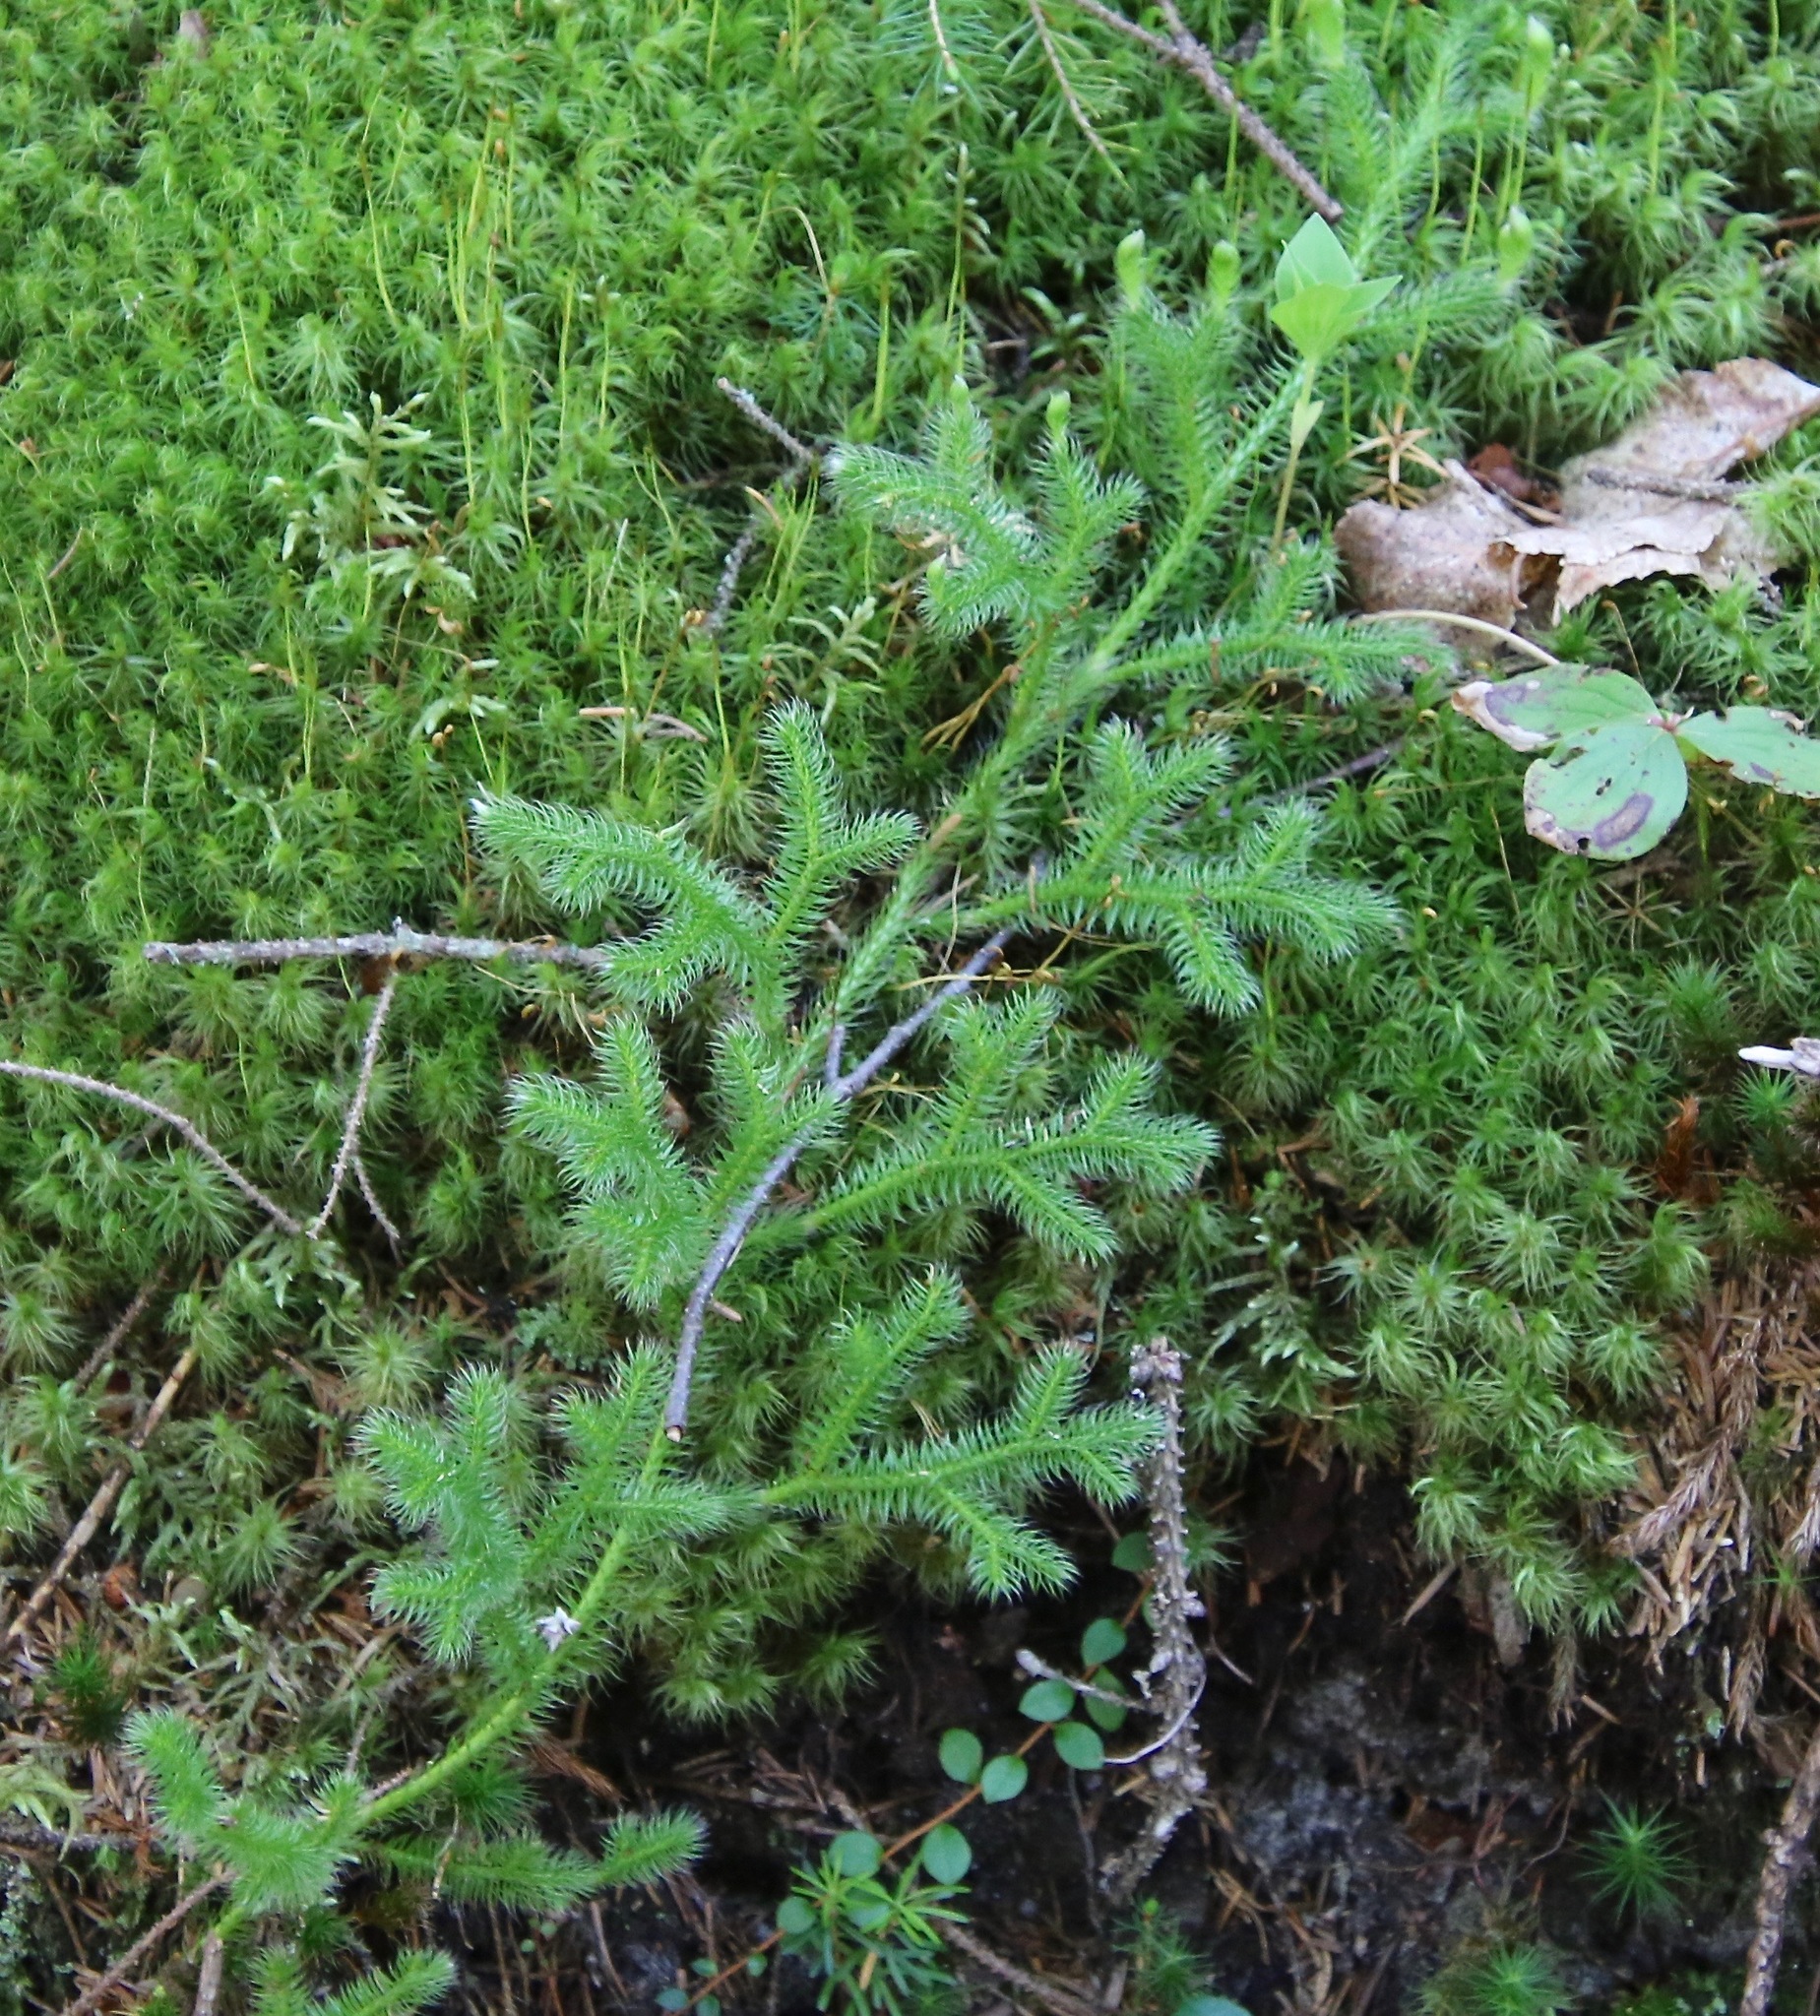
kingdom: Plantae
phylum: Tracheophyta
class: Lycopodiopsida
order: Lycopodiales
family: Lycopodiaceae
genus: Lycopodium
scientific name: Lycopodium clavatum
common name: Stag's-horn clubmoss
